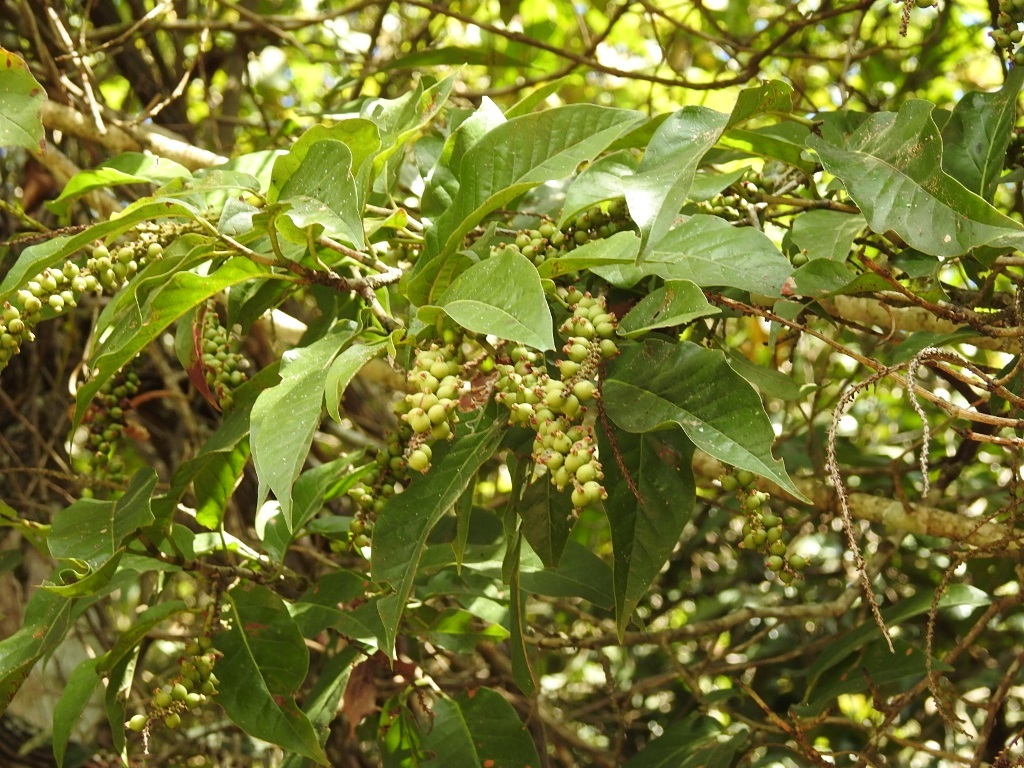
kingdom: Plantae
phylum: Tracheophyta
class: Magnoliopsida
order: Caryophyllales
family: Polygonaceae
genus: Coccoloba
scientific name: Coccoloba floresii
